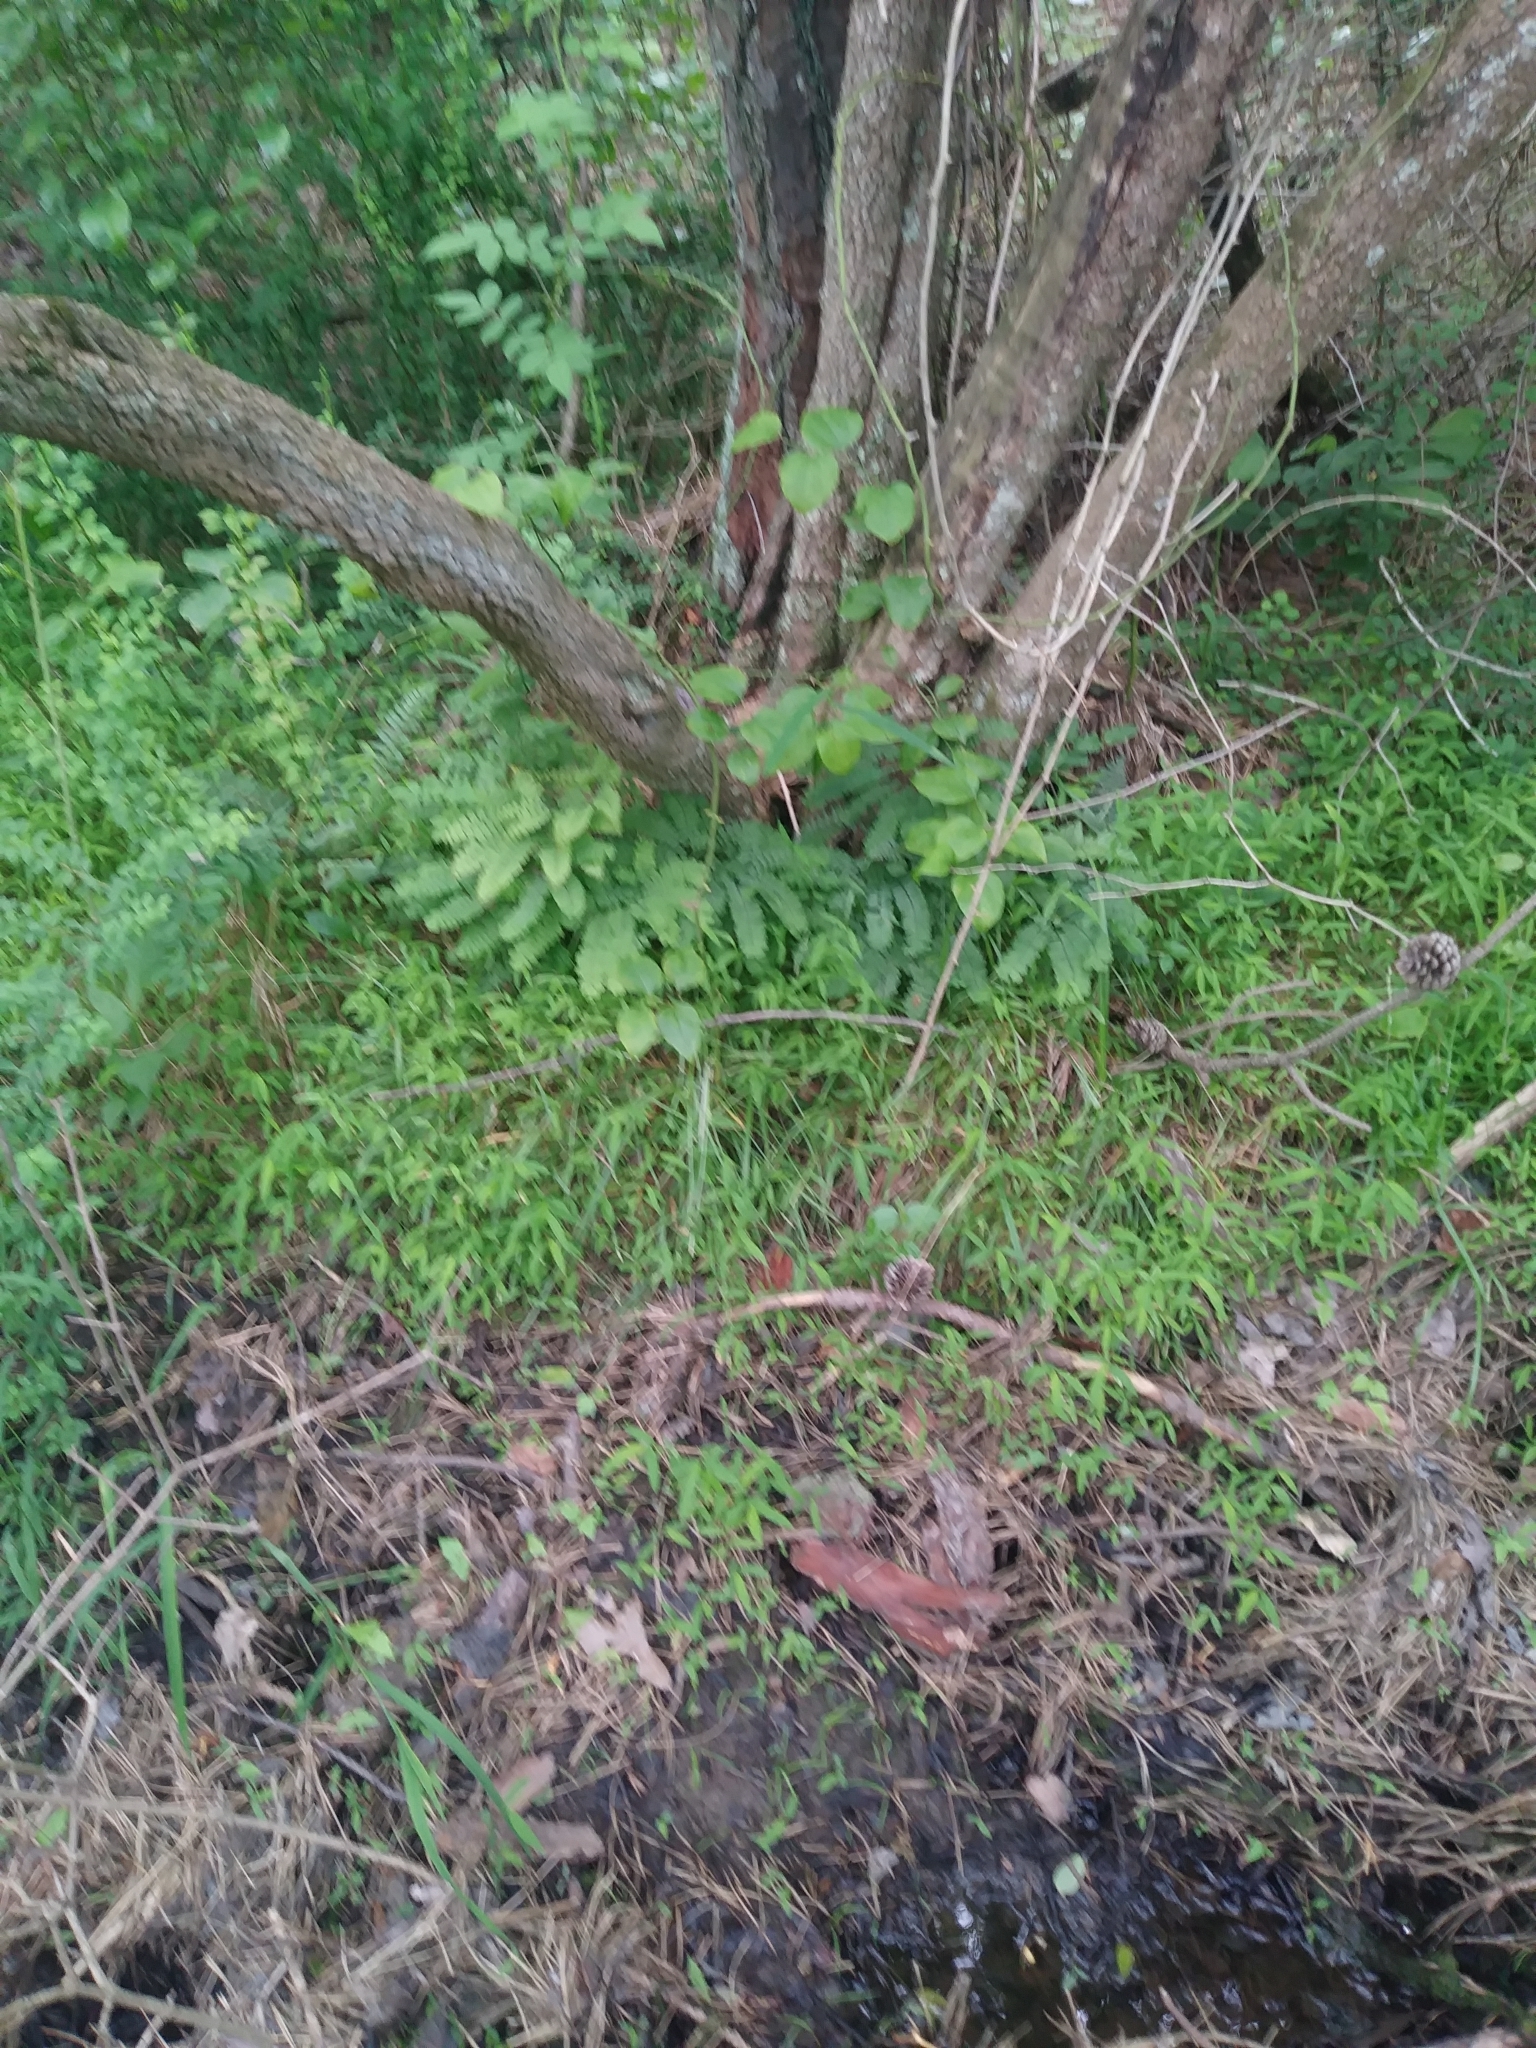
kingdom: Plantae
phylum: Tracheophyta
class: Polypodiopsida
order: Polypodiales
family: Pteridaceae
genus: Adiantum
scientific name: Adiantum pedatum
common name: Five-finger fern
